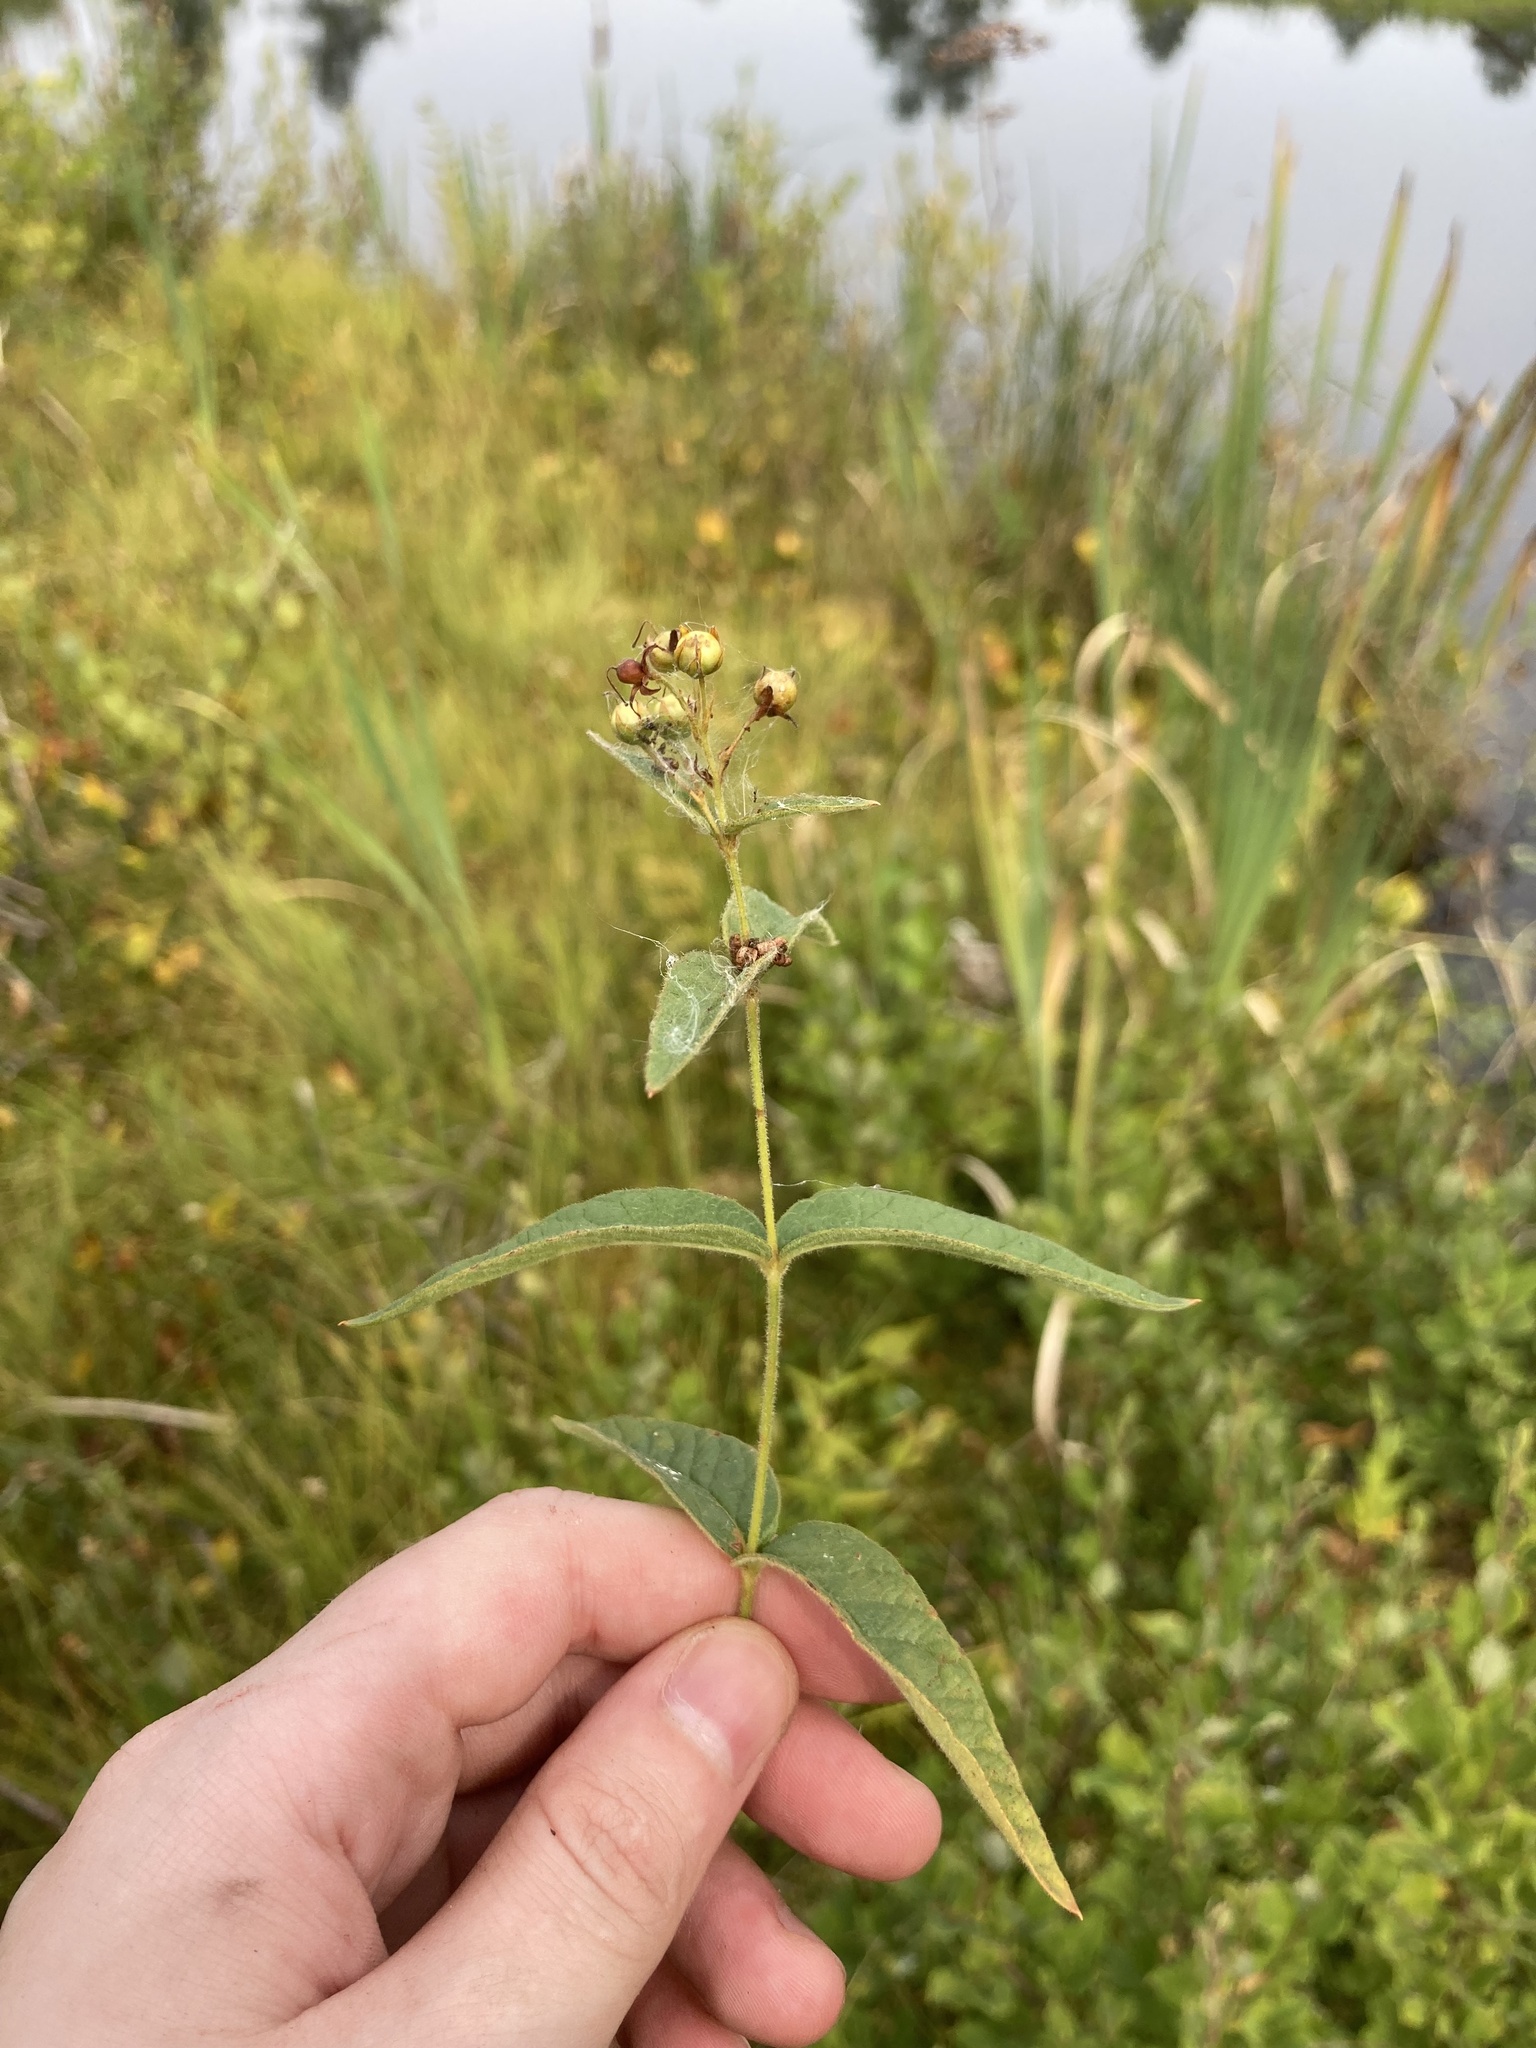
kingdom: Plantae
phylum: Tracheophyta
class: Magnoliopsida
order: Ericales
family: Primulaceae
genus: Lysimachia
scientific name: Lysimachia vulgaris
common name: Yellow loosestrife
